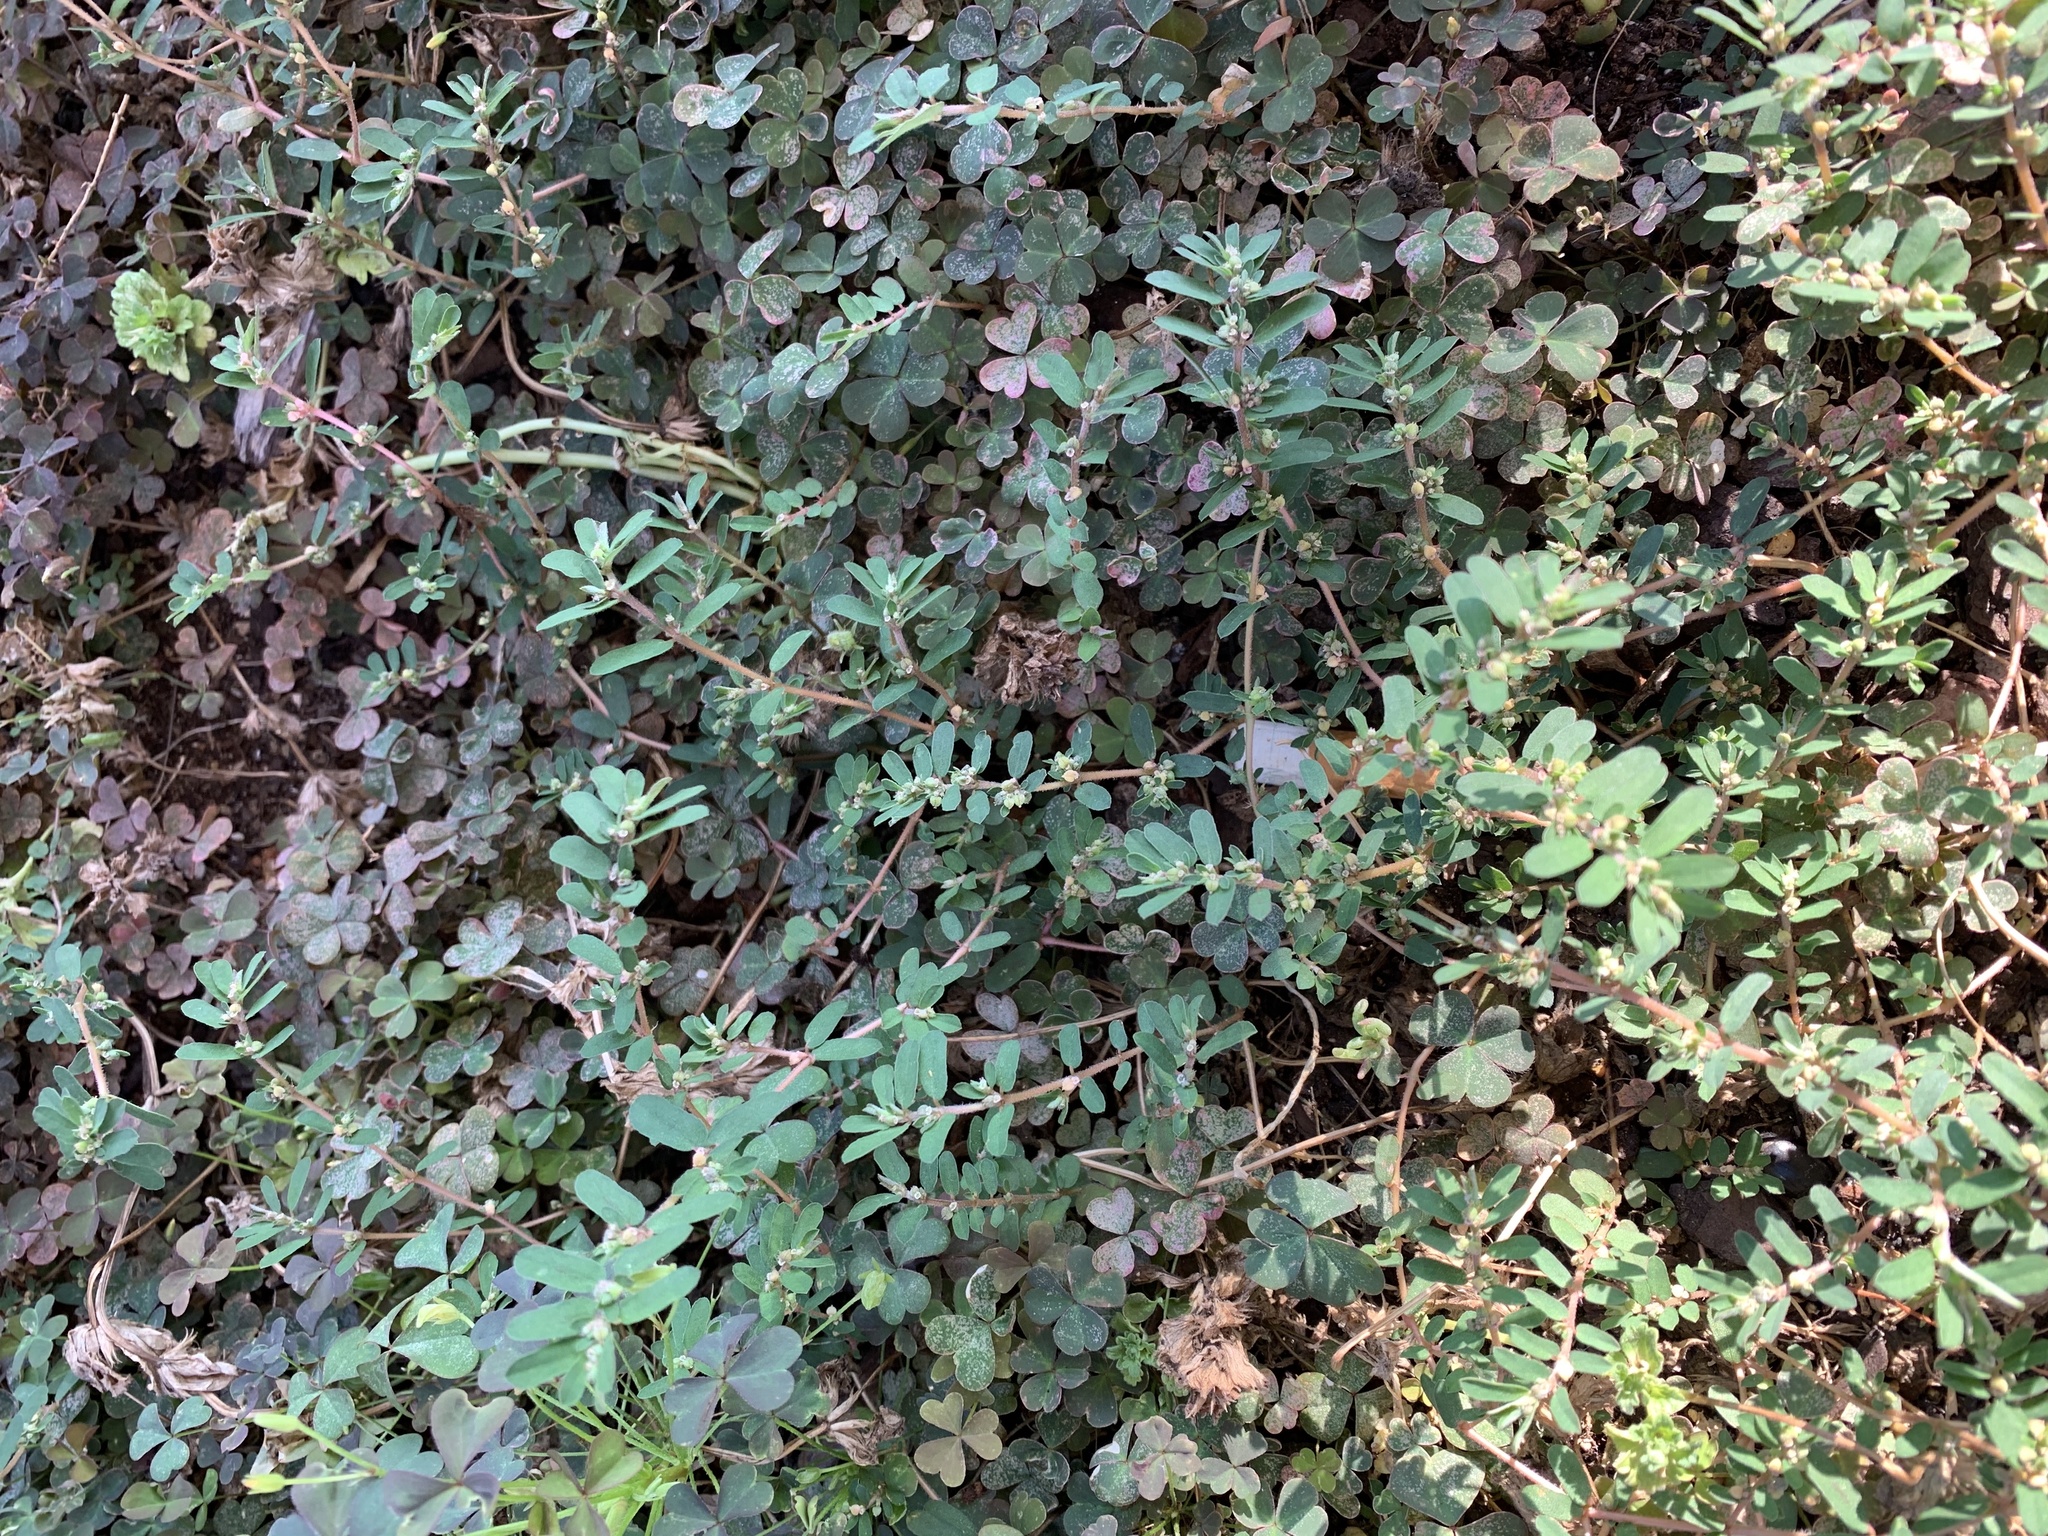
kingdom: Plantae
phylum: Tracheophyta
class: Magnoliopsida
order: Malpighiales
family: Euphorbiaceae
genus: Euphorbia
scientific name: Euphorbia maculata
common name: Spotted spurge
